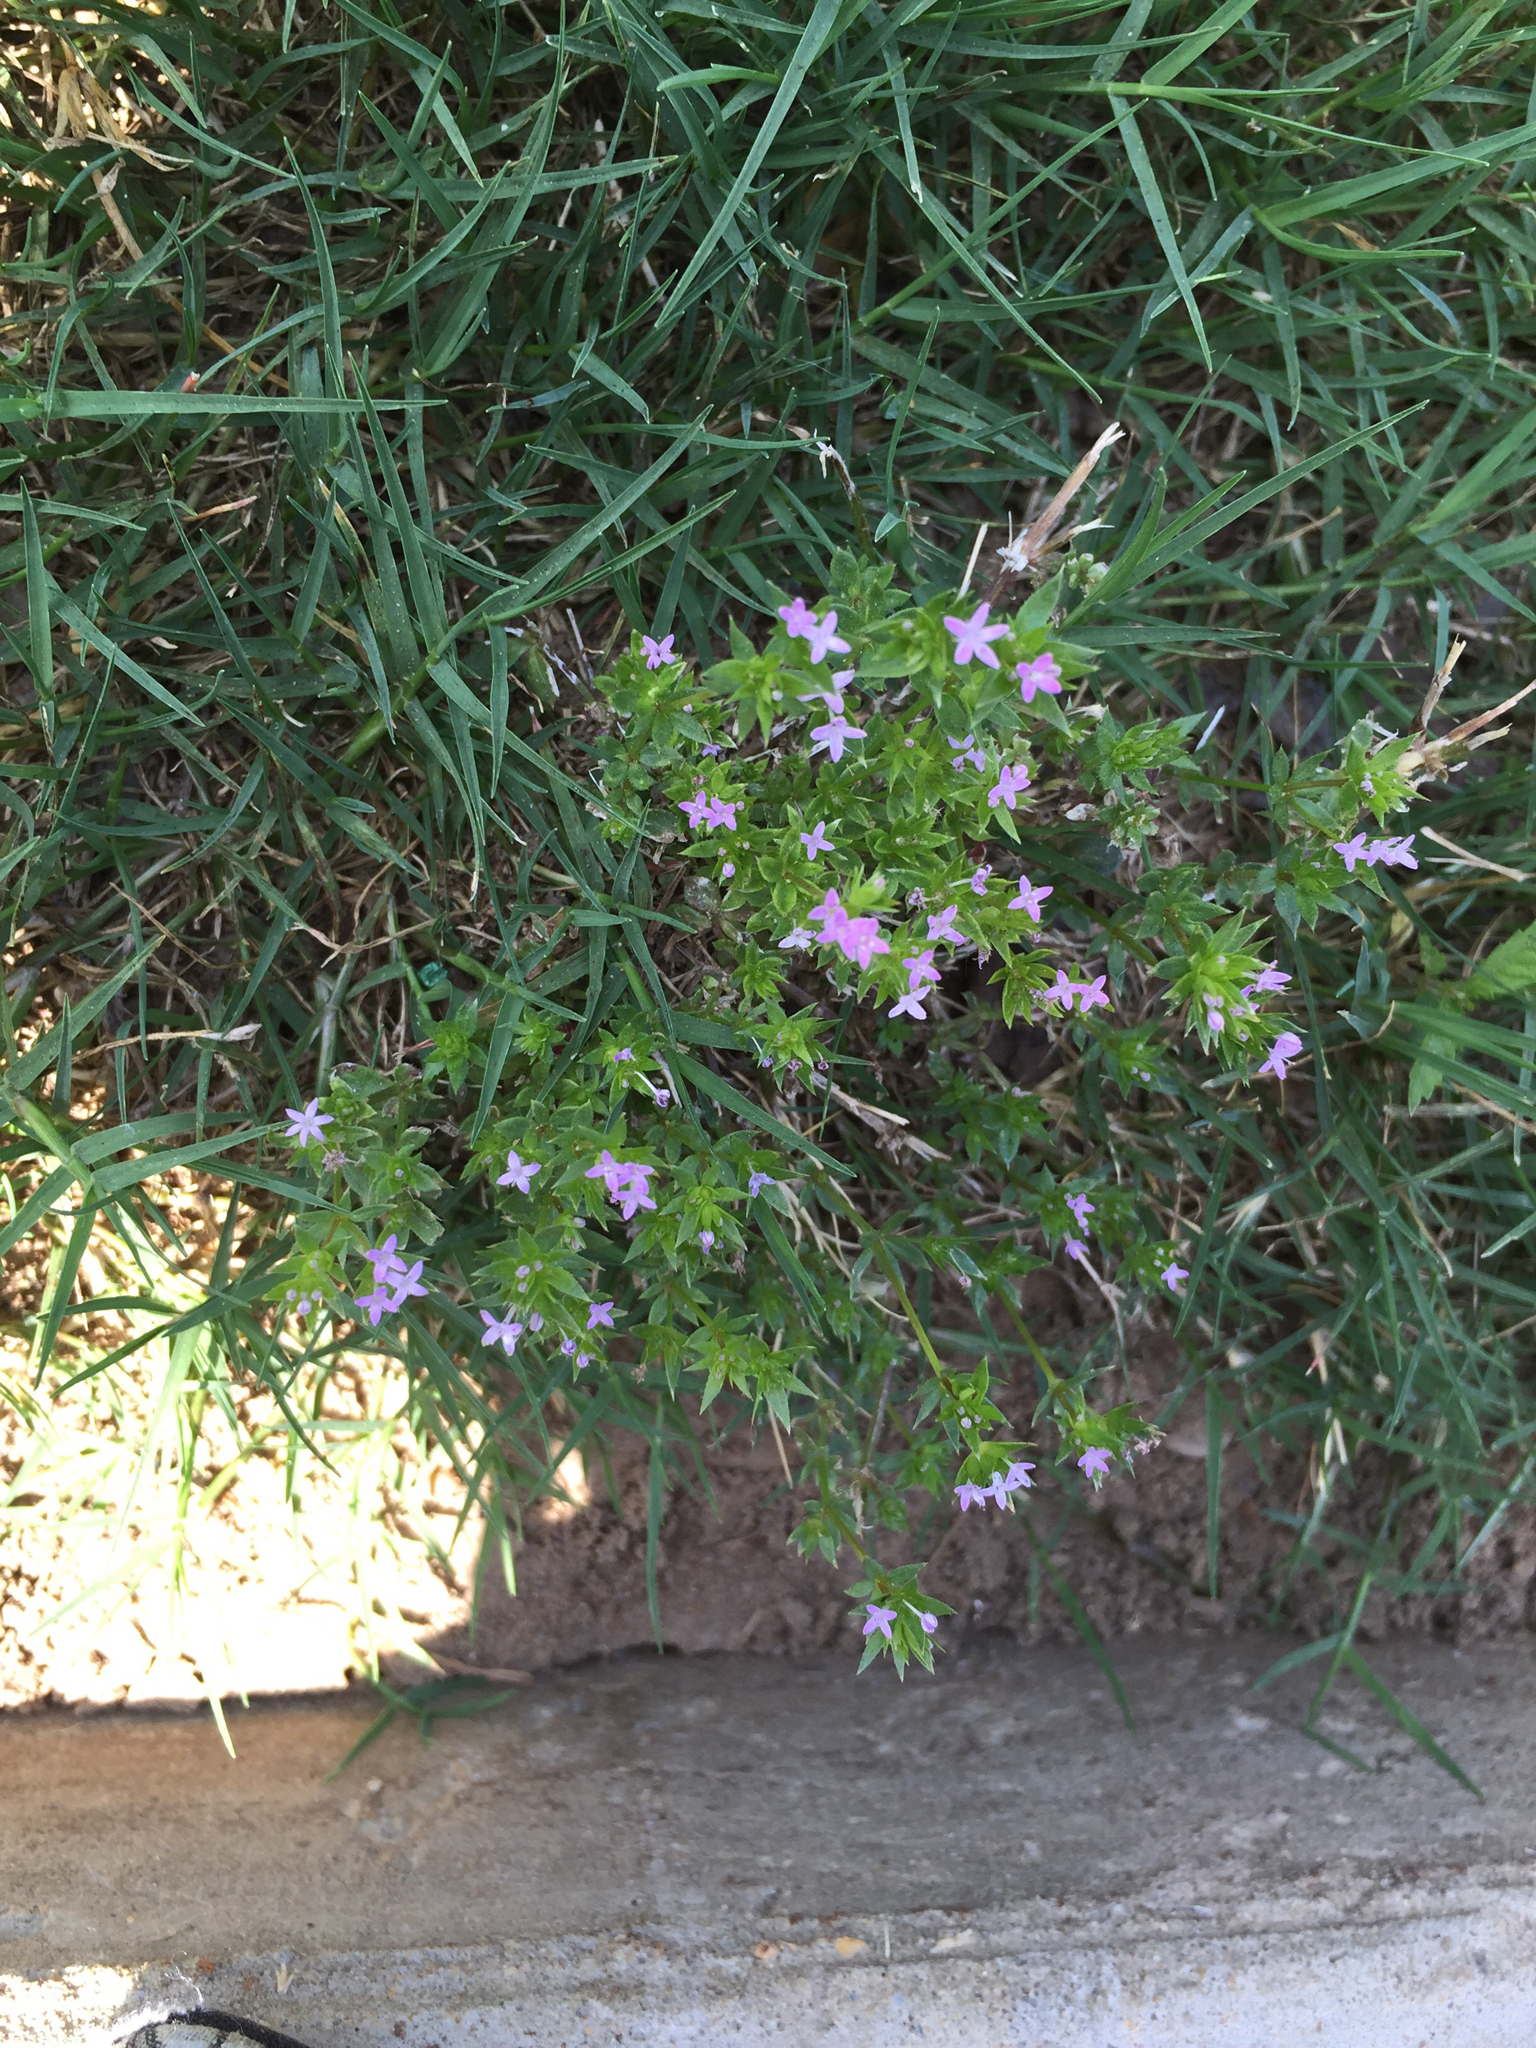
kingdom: Plantae
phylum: Tracheophyta
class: Magnoliopsida
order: Gentianales
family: Rubiaceae
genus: Sherardia
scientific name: Sherardia arvensis
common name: Field madder
